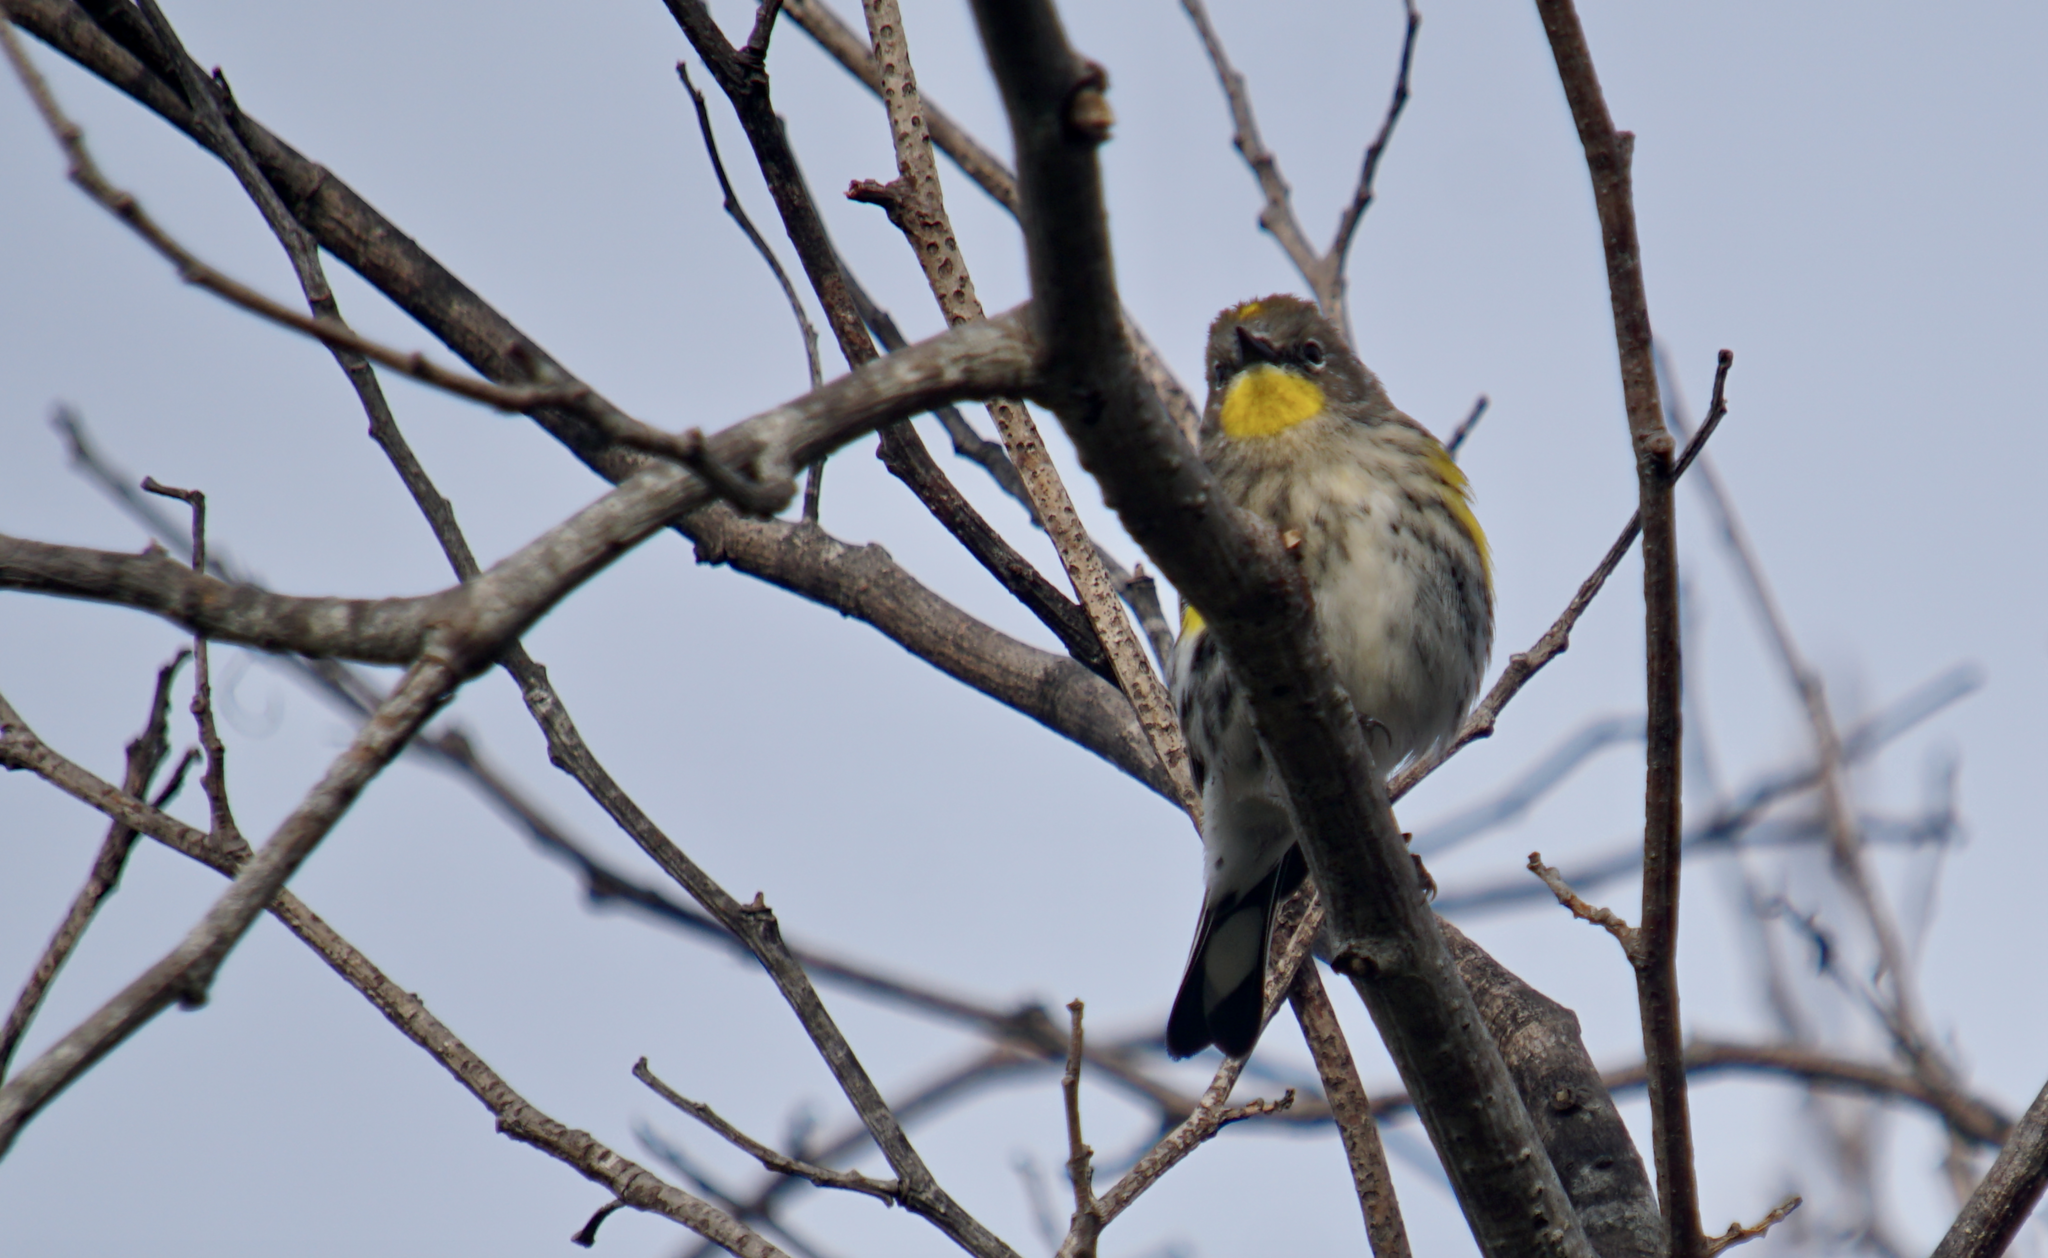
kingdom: Animalia
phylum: Chordata
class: Aves
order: Passeriformes
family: Parulidae
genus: Setophaga
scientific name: Setophaga coronata
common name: Myrtle warbler
